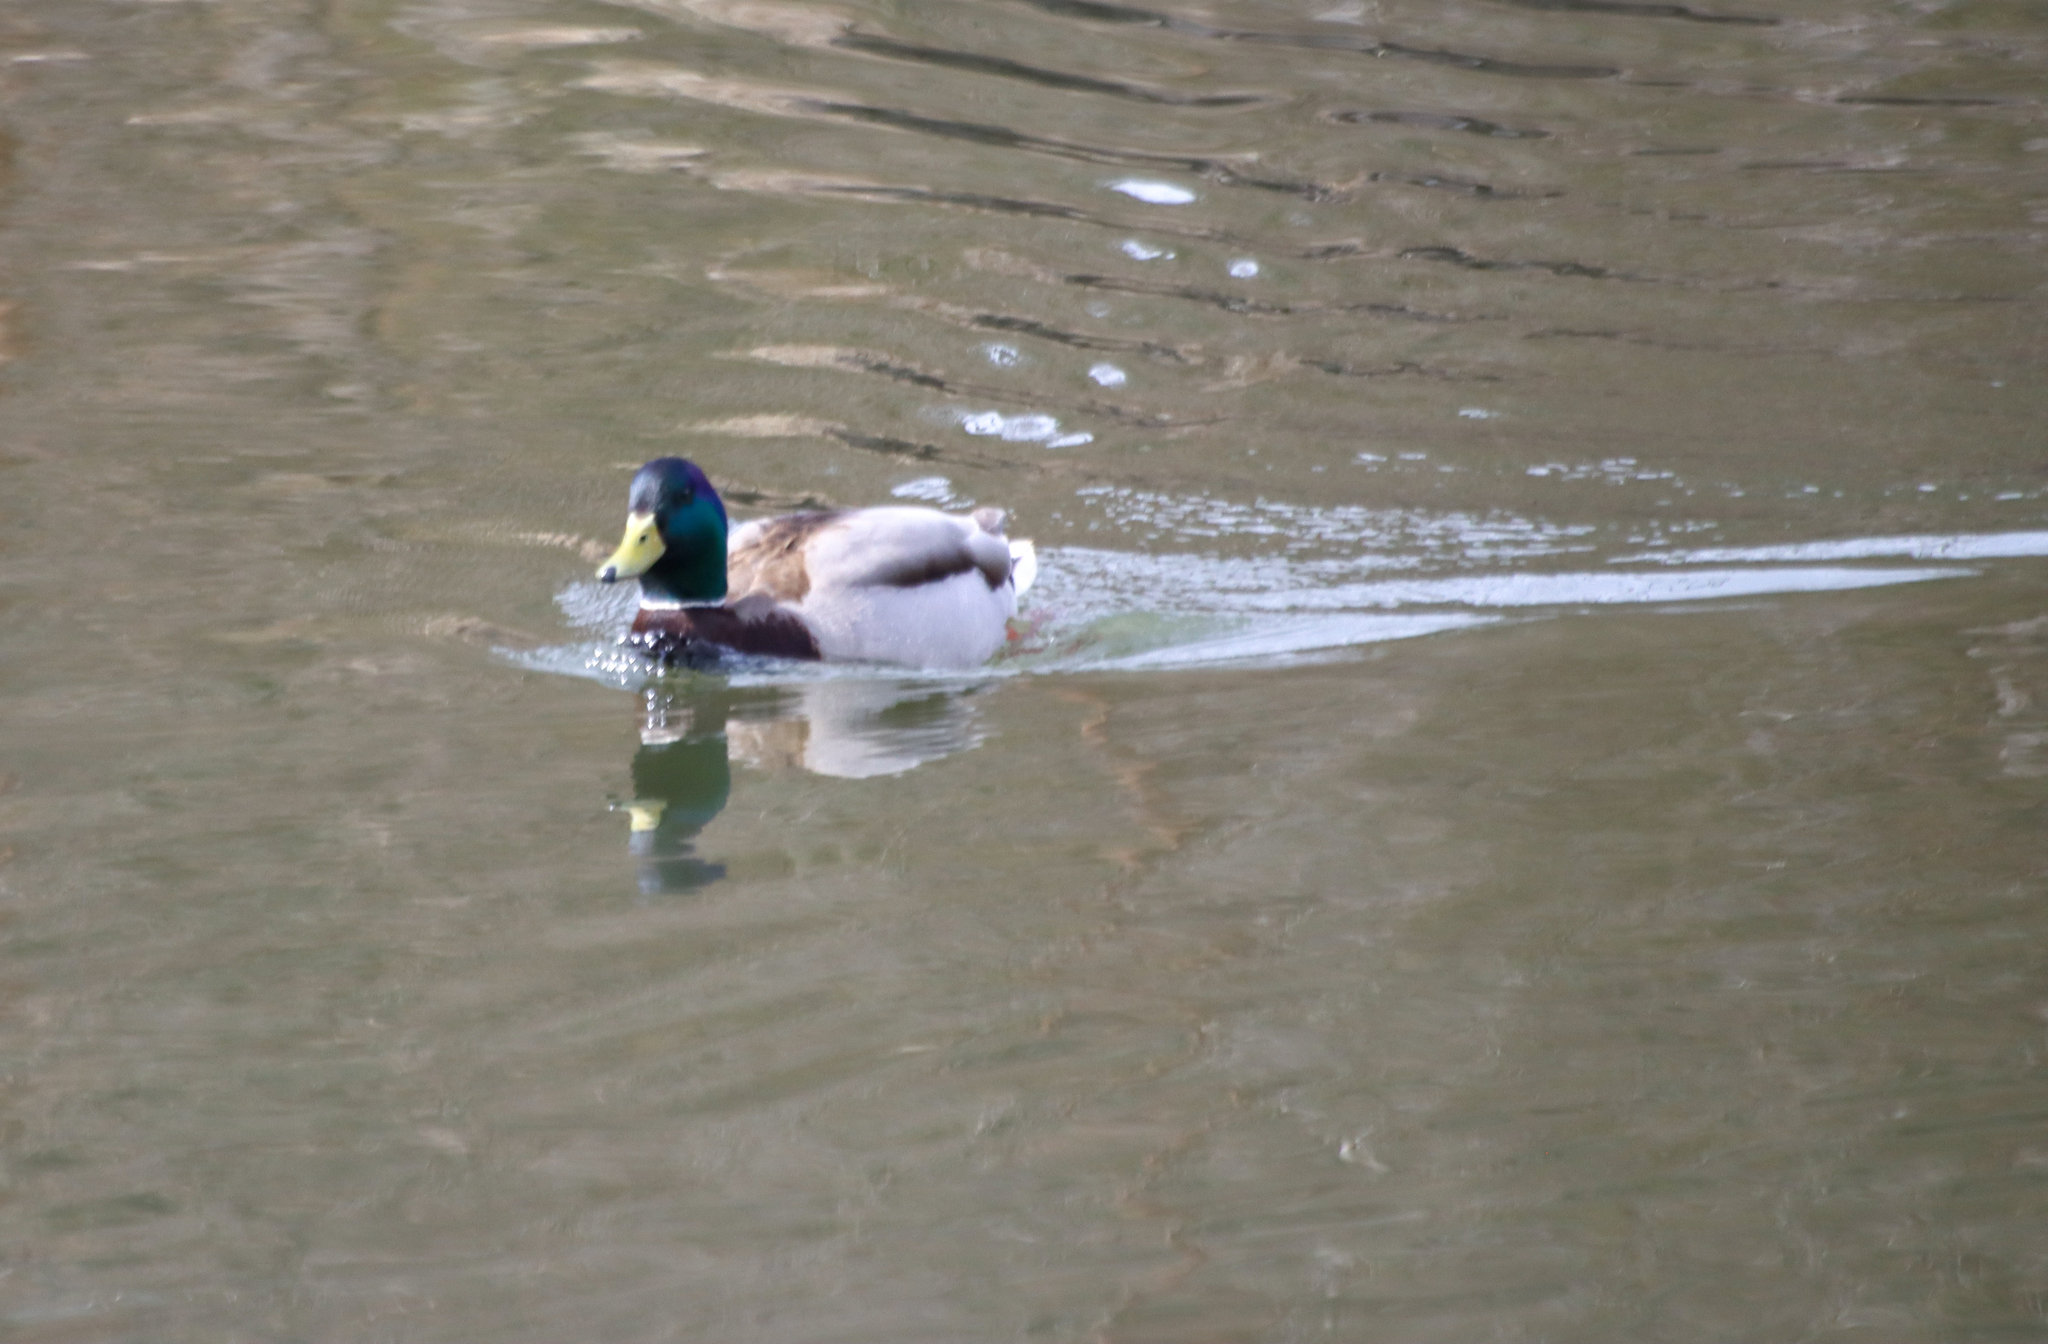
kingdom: Animalia
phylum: Chordata
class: Aves
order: Anseriformes
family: Anatidae
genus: Anas
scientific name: Anas platyrhynchos
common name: Mallard
